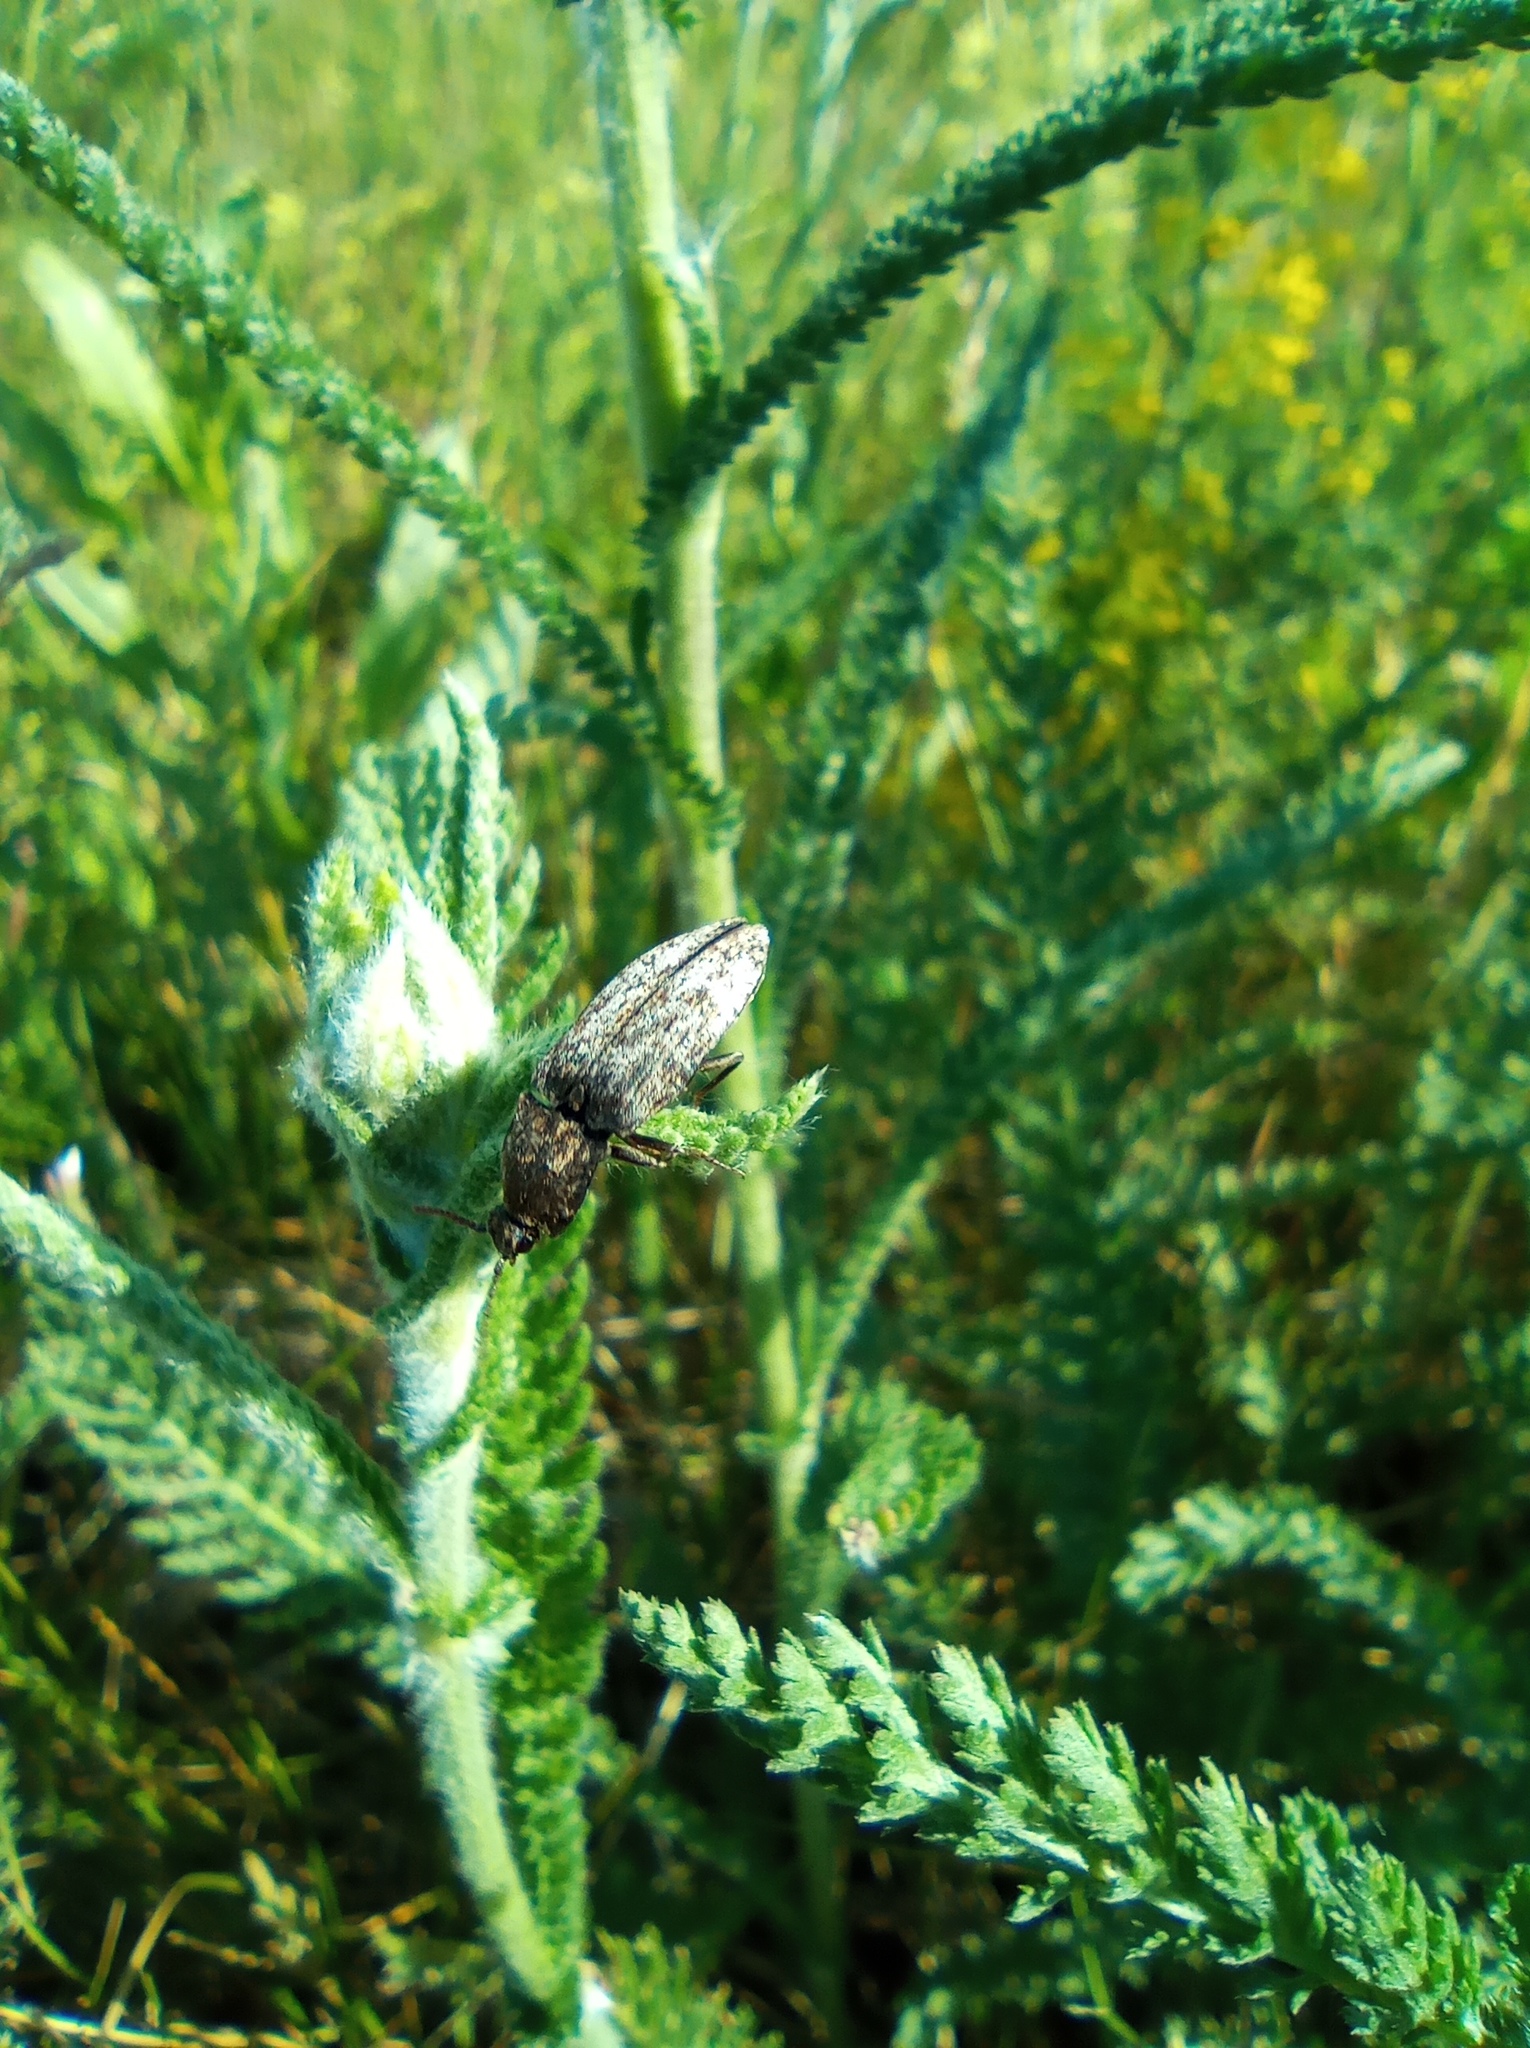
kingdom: Animalia
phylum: Arthropoda
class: Insecta
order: Coleoptera
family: Elateridae
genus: Agrypnus
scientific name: Agrypnus murinus
